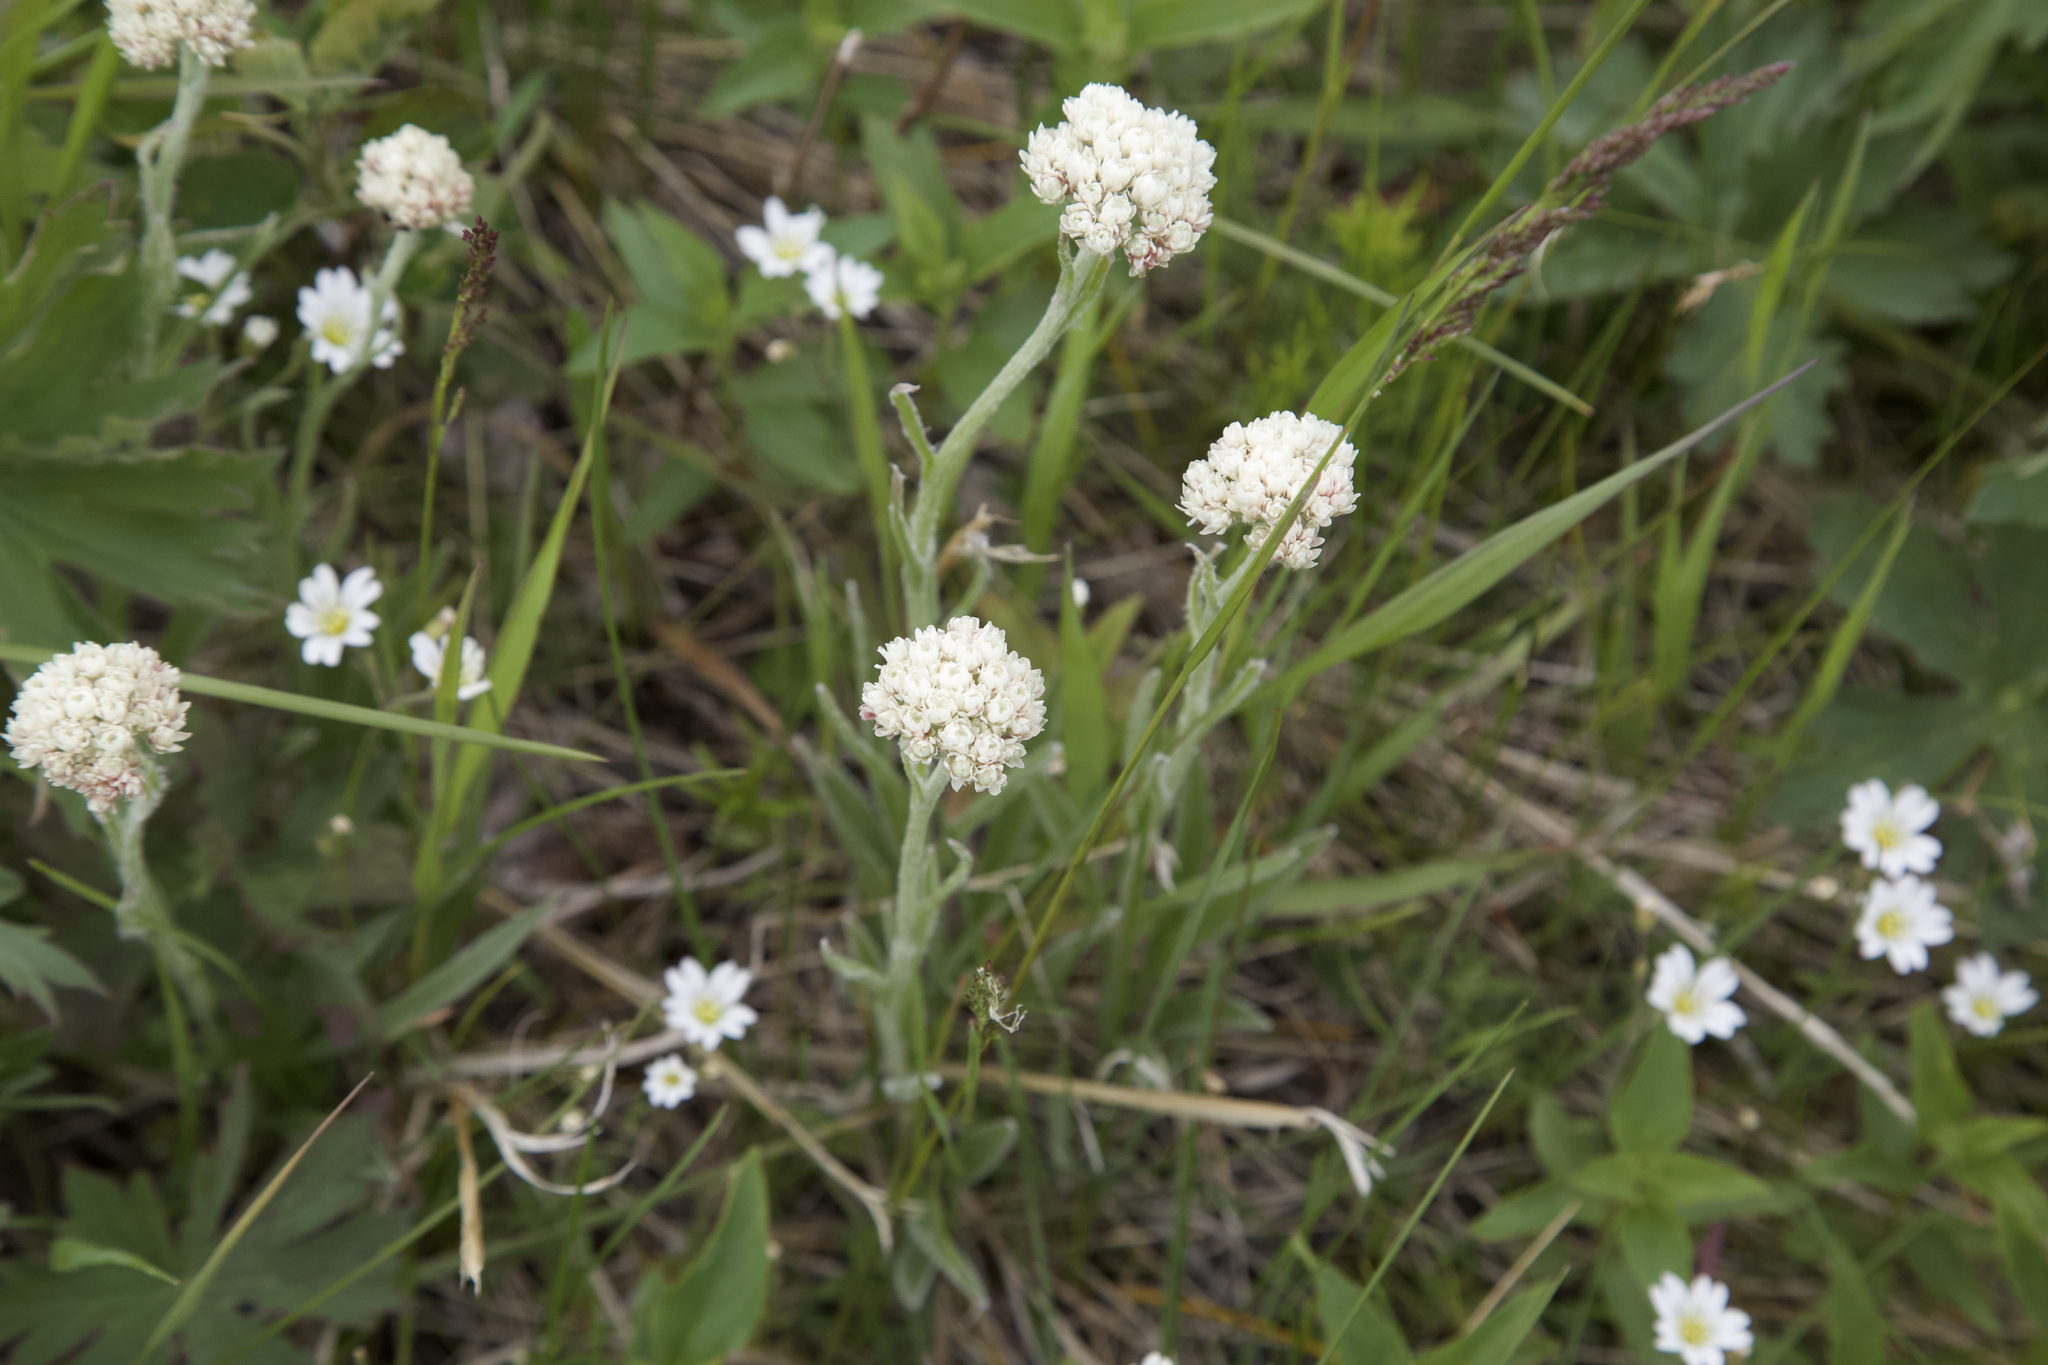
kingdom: Plantae
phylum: Tracheophyta
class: Magnoliopsida
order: Asterales
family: Asteraceae
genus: Antennaria
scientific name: Antennaria anaphaloides
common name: Tall pussytoes
